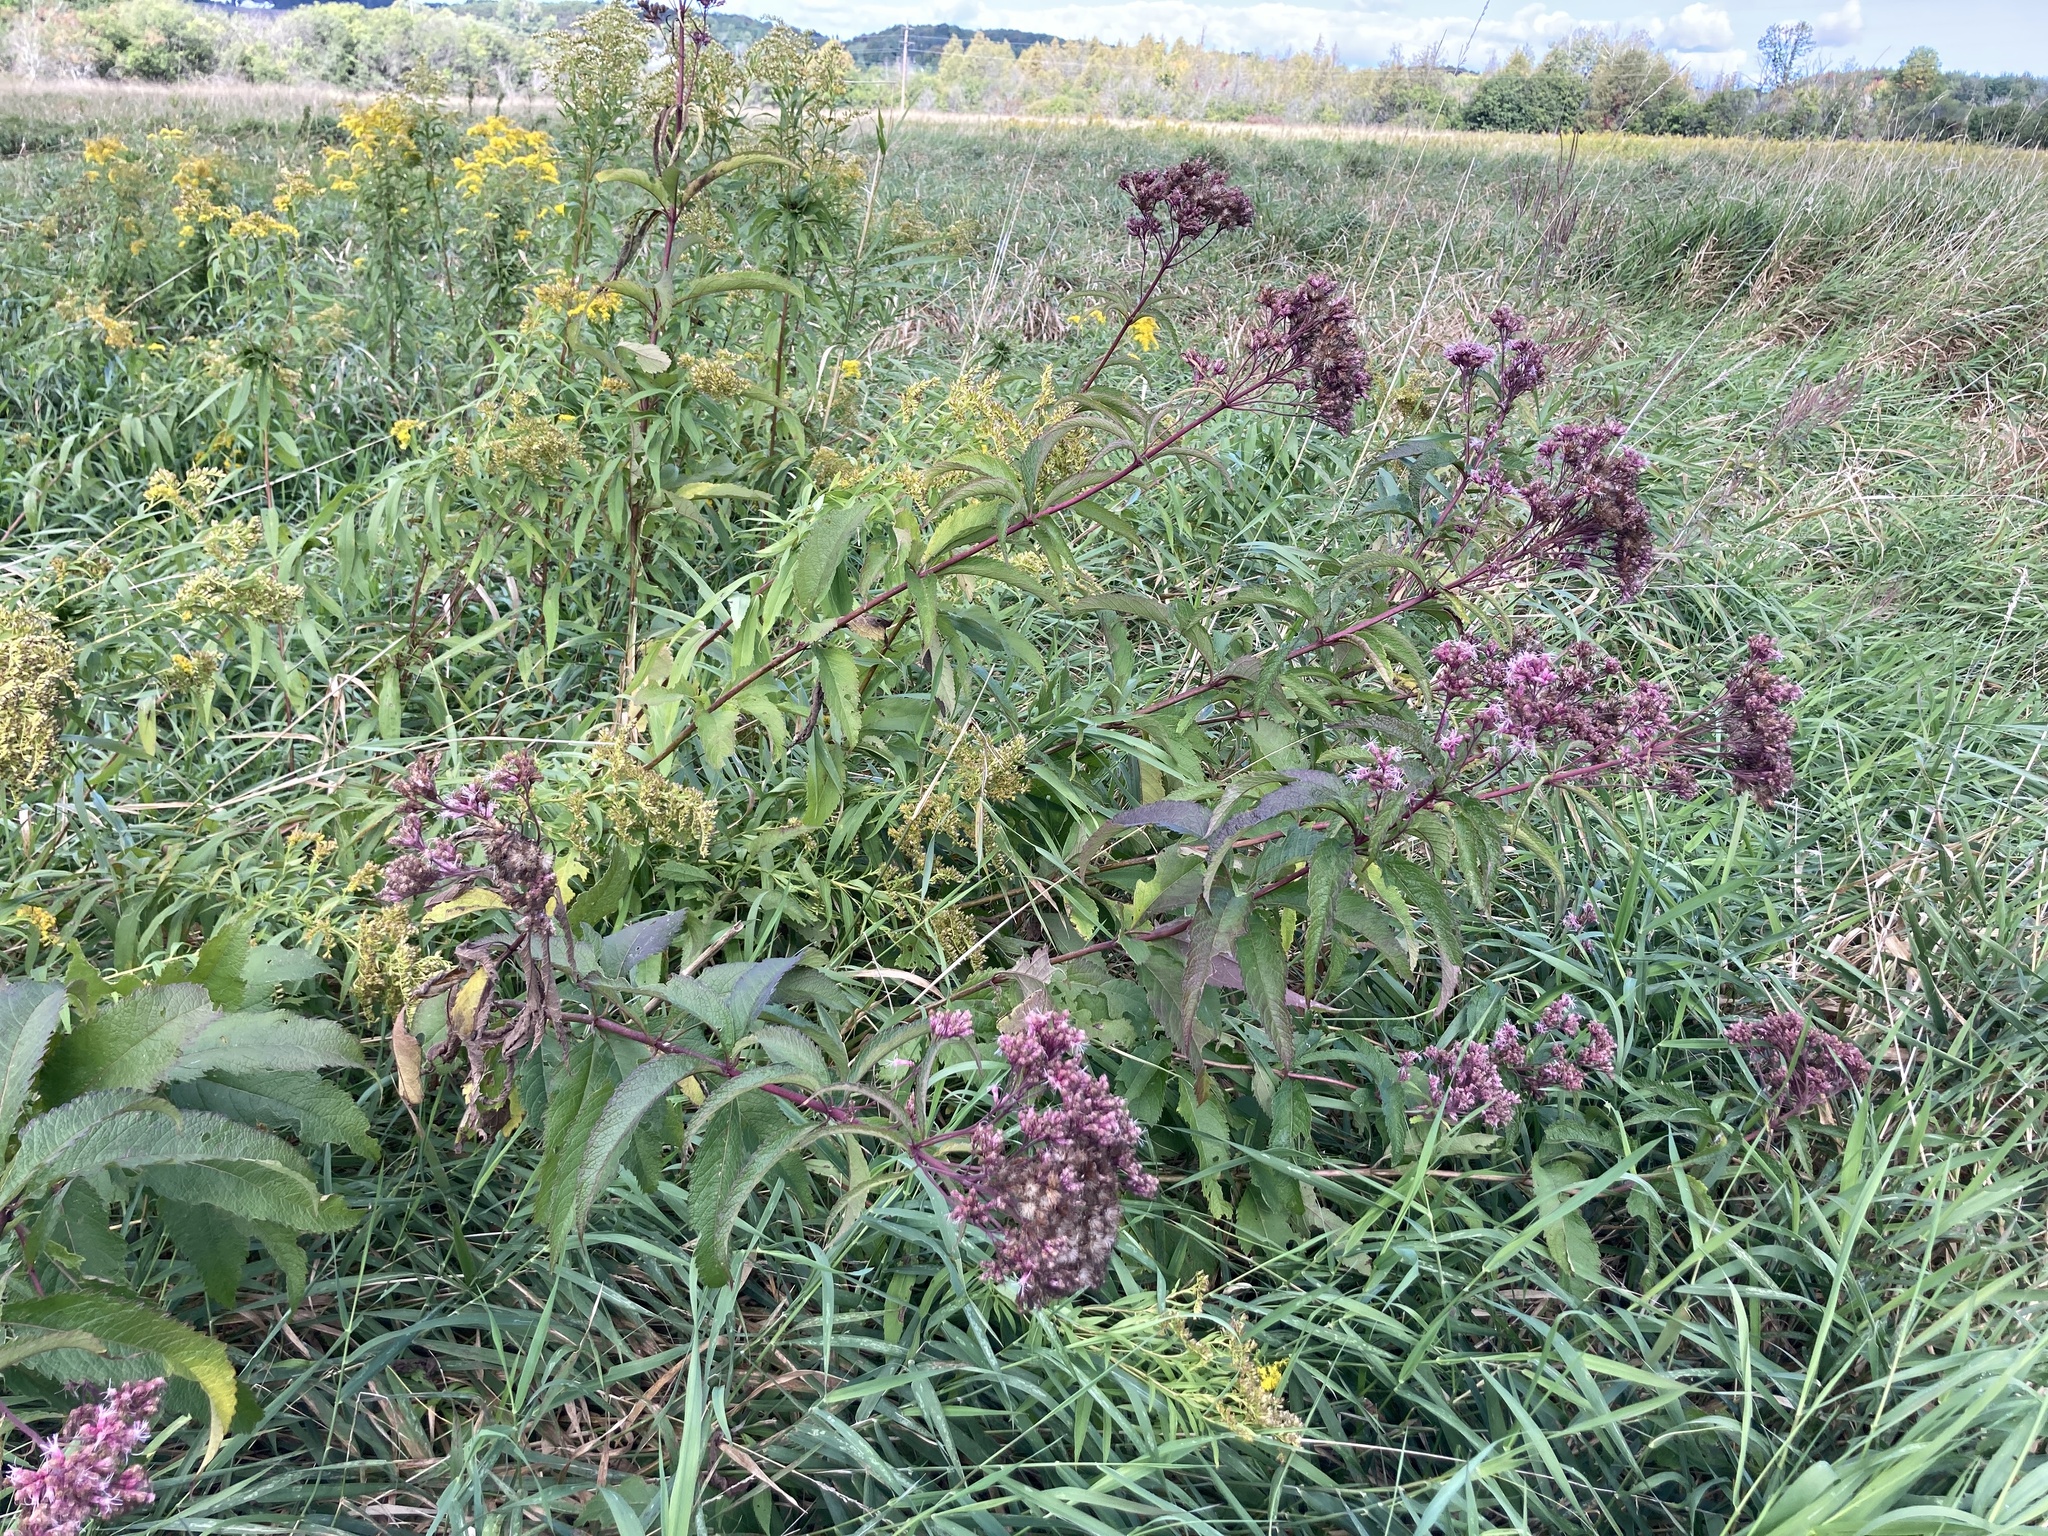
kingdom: Plantae
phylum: Tracheophyta
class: Magnoliopsida
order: Asterales
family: Asteraceae
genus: Eutrochium
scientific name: Eutrochium maculatum
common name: Spotted joe pye weed
